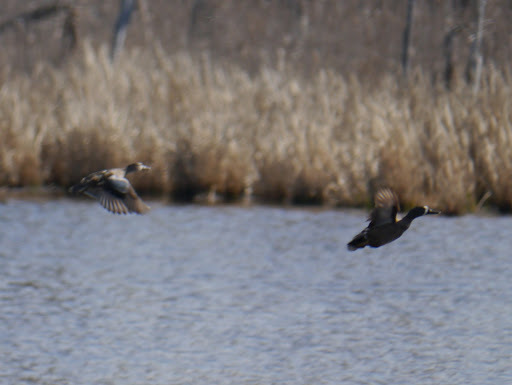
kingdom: Animalia
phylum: Chordata
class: Aves
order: Anseriformes
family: Anatidae
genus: Spatula
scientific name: Spatula discors
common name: Blue-winged teal
